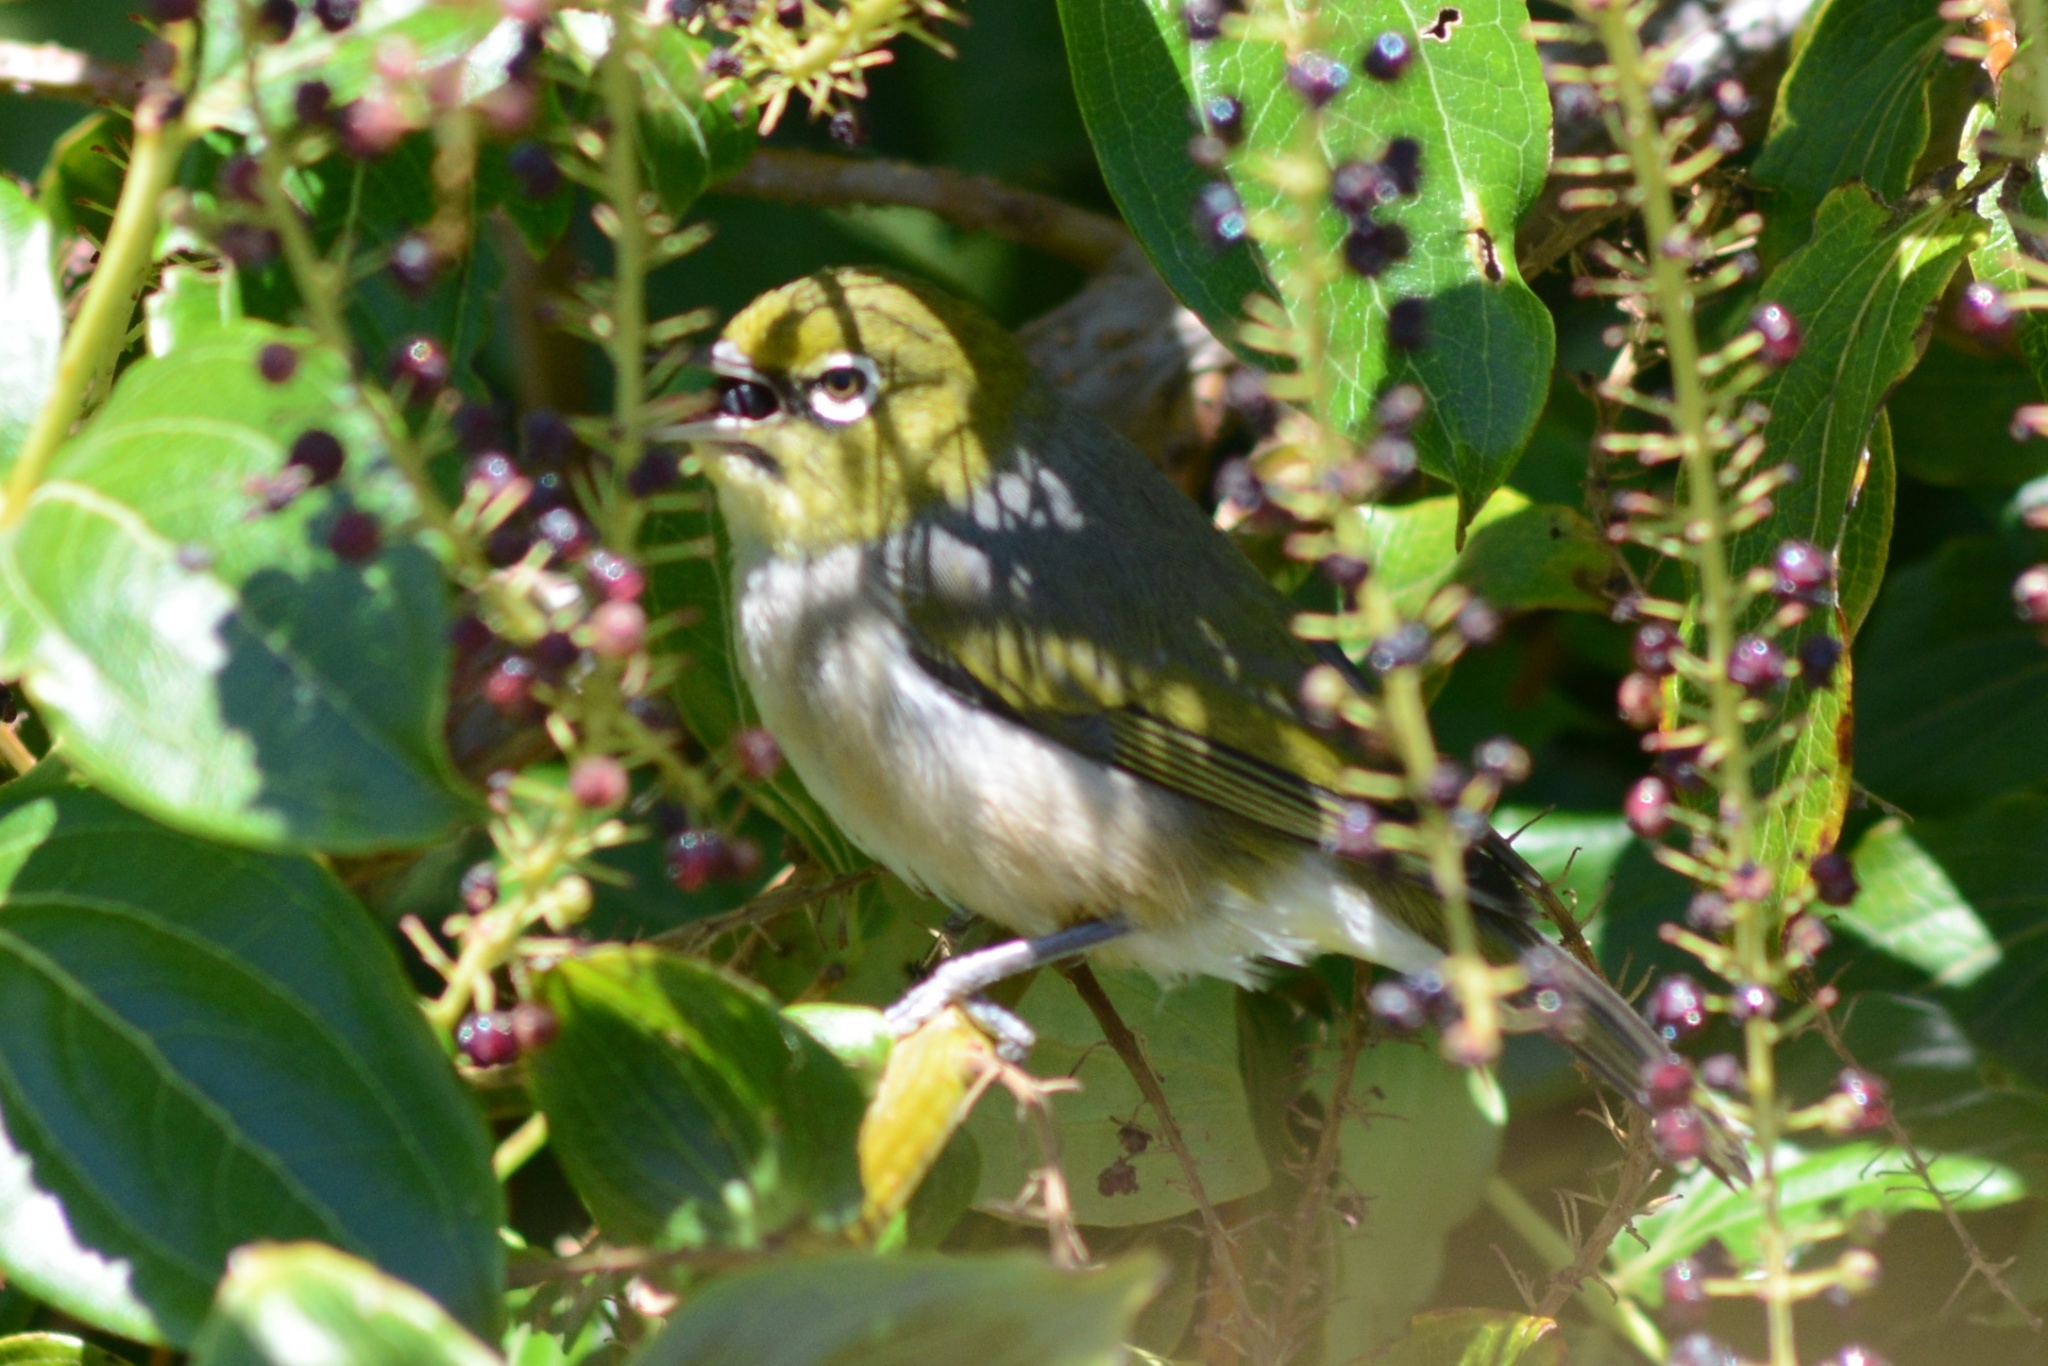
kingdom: Animalia
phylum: Chordata
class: Aves
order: Passeriformes
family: Zosteropidae
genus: Zosterops
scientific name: Zosterops lateralis
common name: Silvereye
